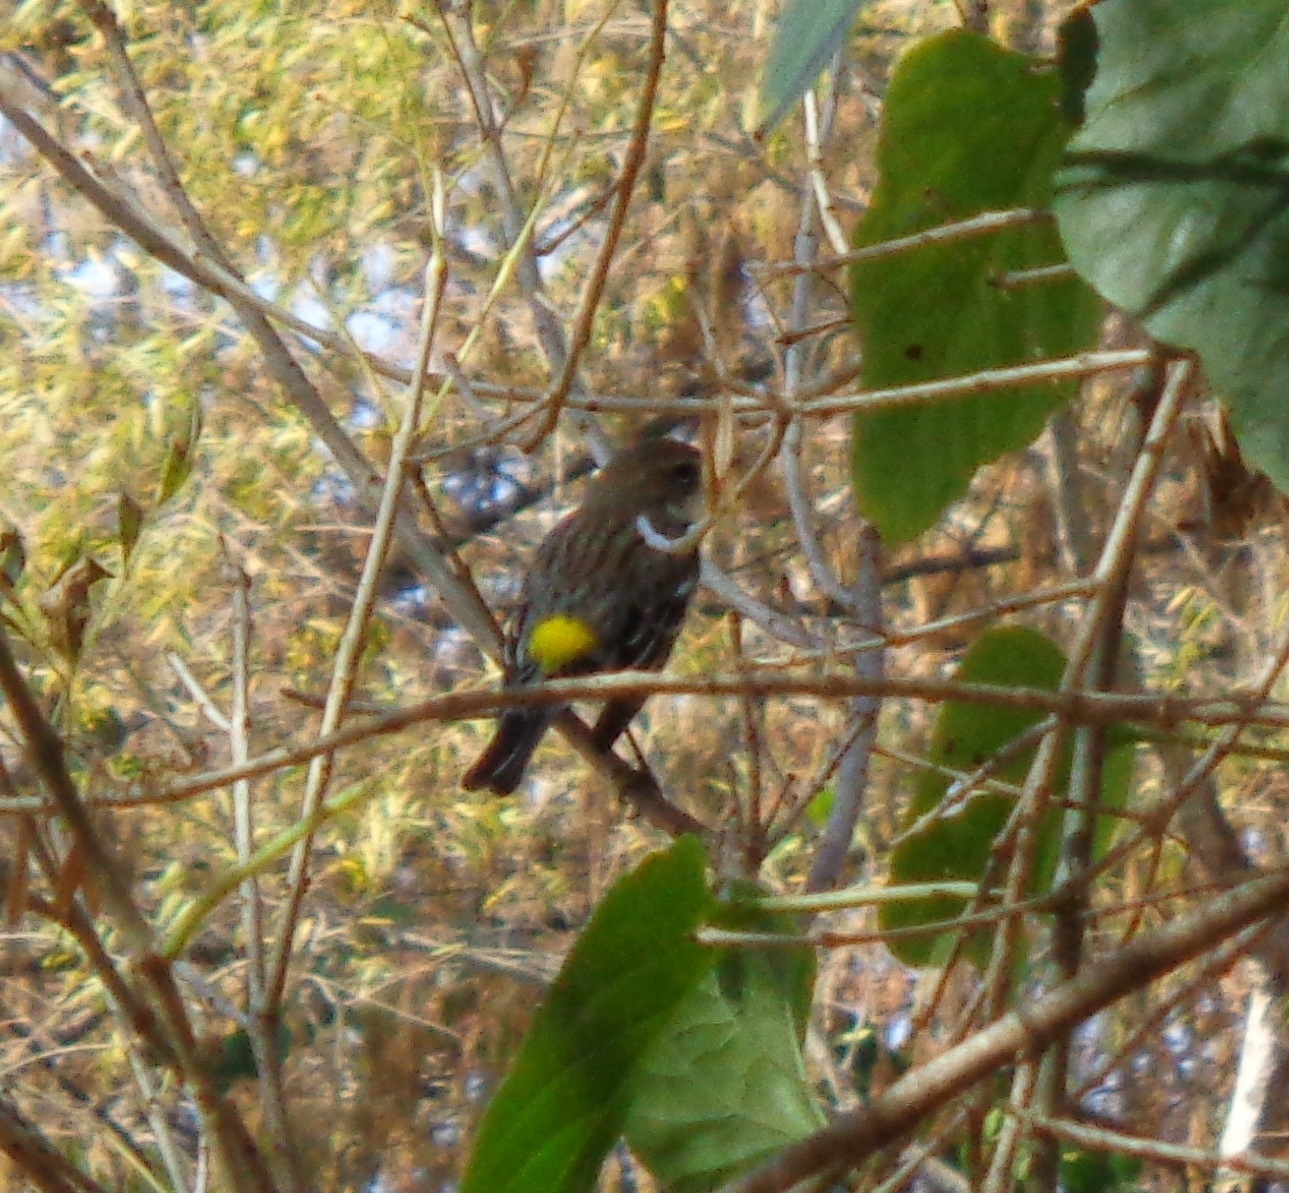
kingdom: Animalia
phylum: Chordata
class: Aves
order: Passeriformes
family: Parulidae
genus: Setophaga
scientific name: Setophaga coronata
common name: Myrtle warbler
